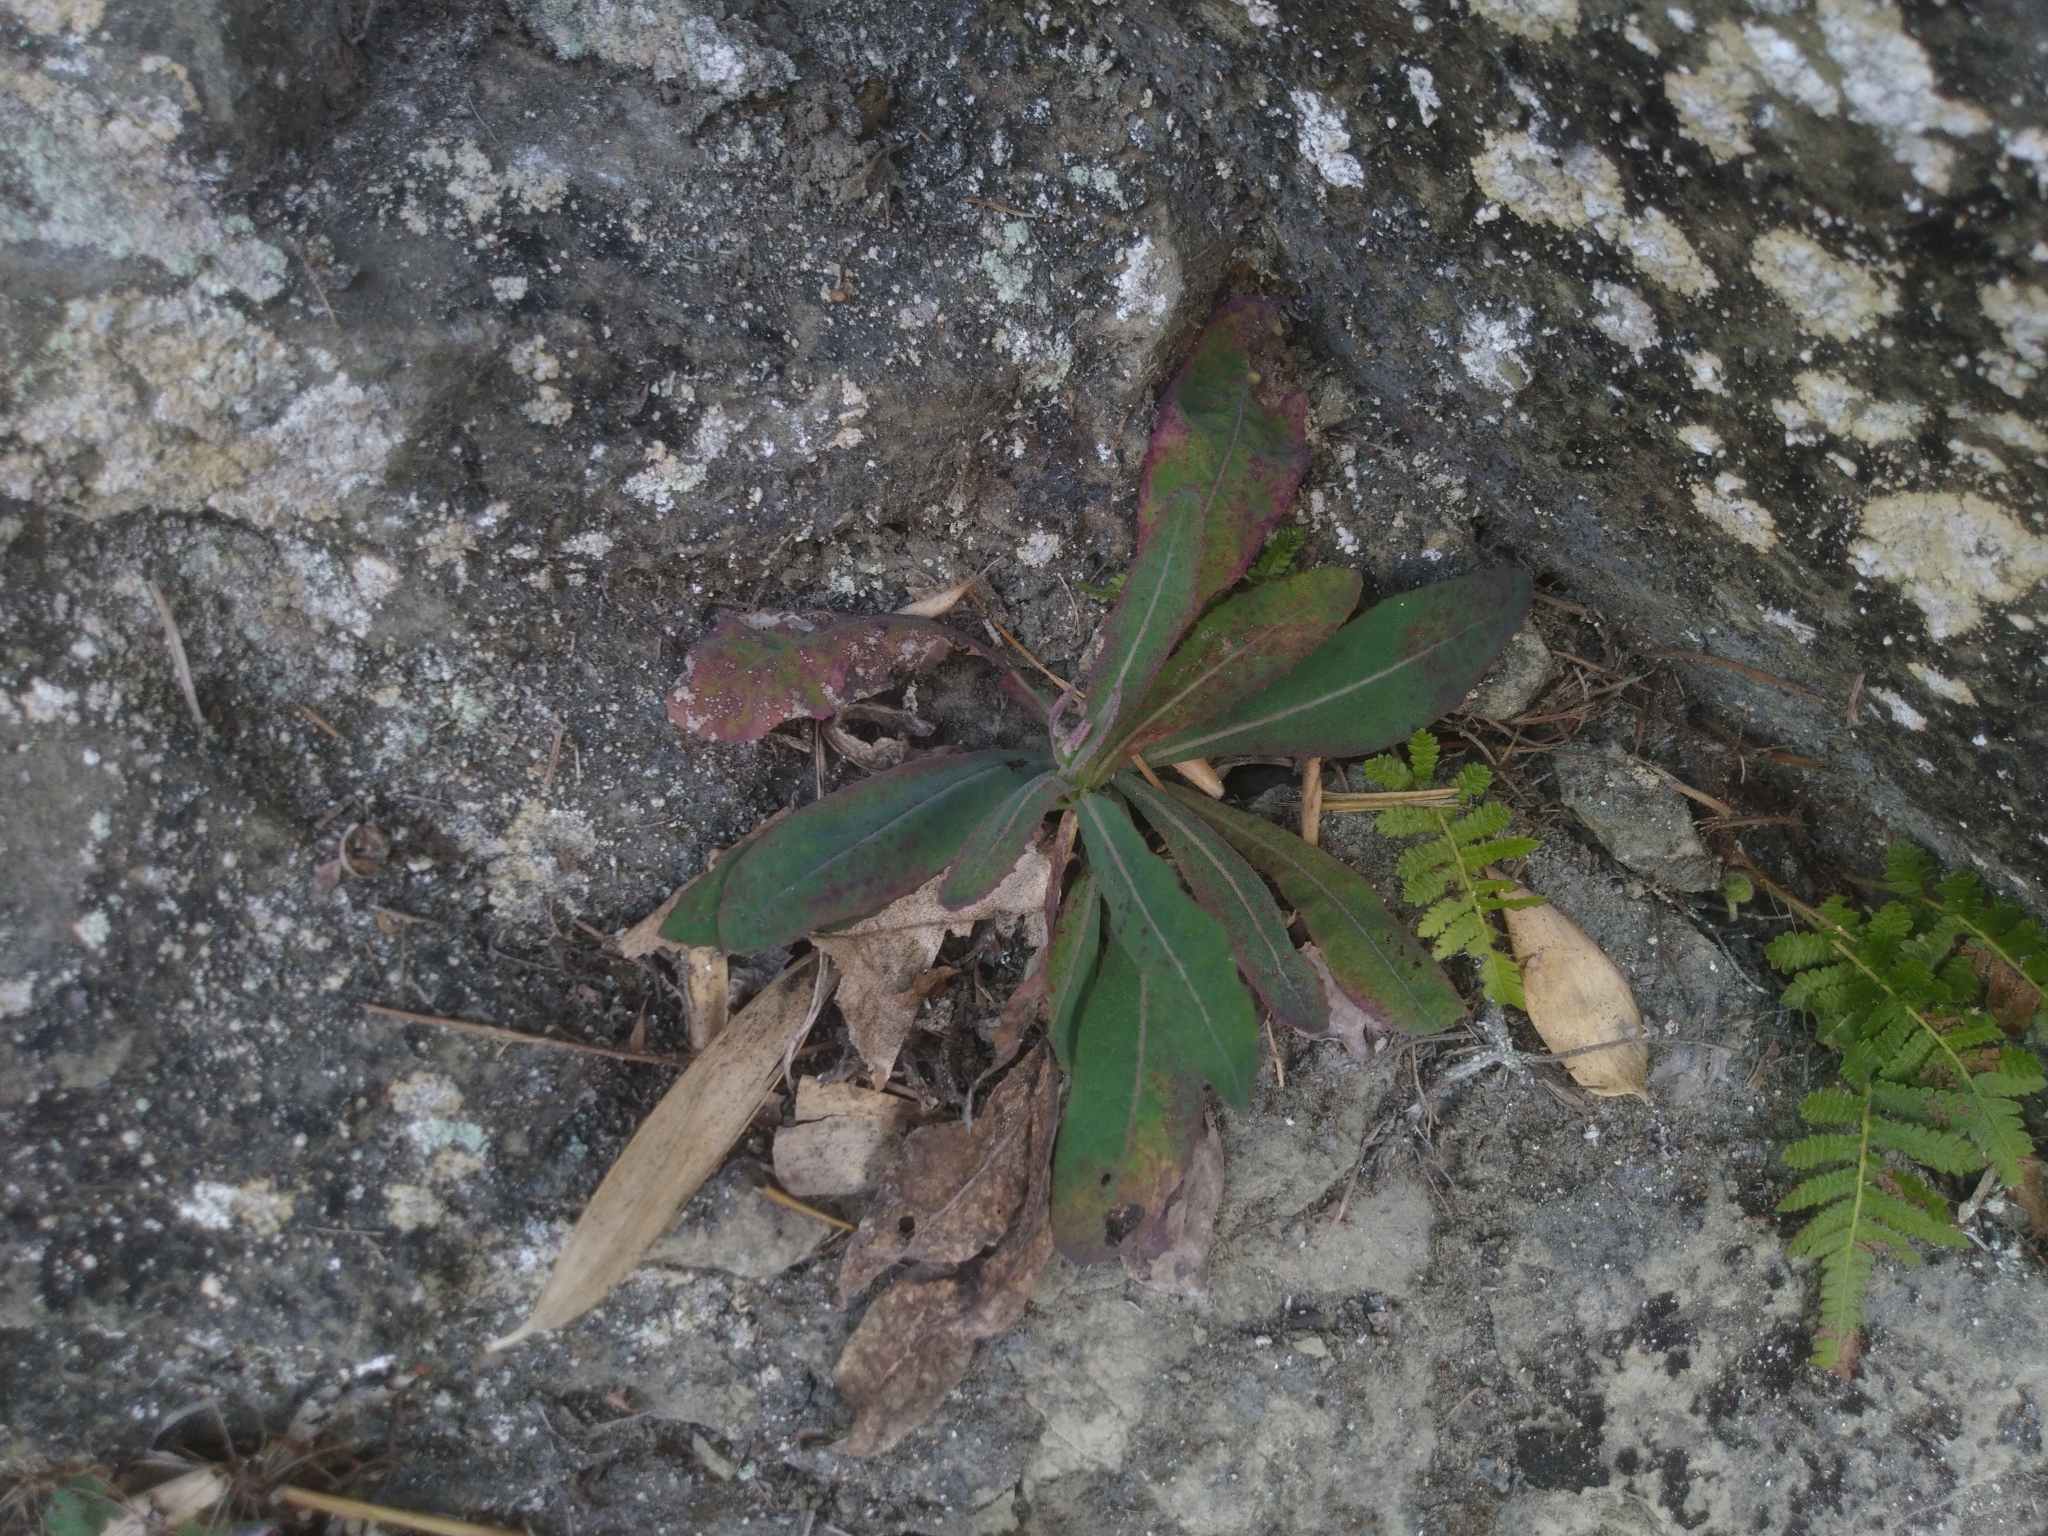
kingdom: Plantae
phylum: Tracheophyta
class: Magnoliopsida
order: Asterales
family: Asteraceae
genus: Sonchus
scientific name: Sonchus arvensis
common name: Perennial sow-thistle
